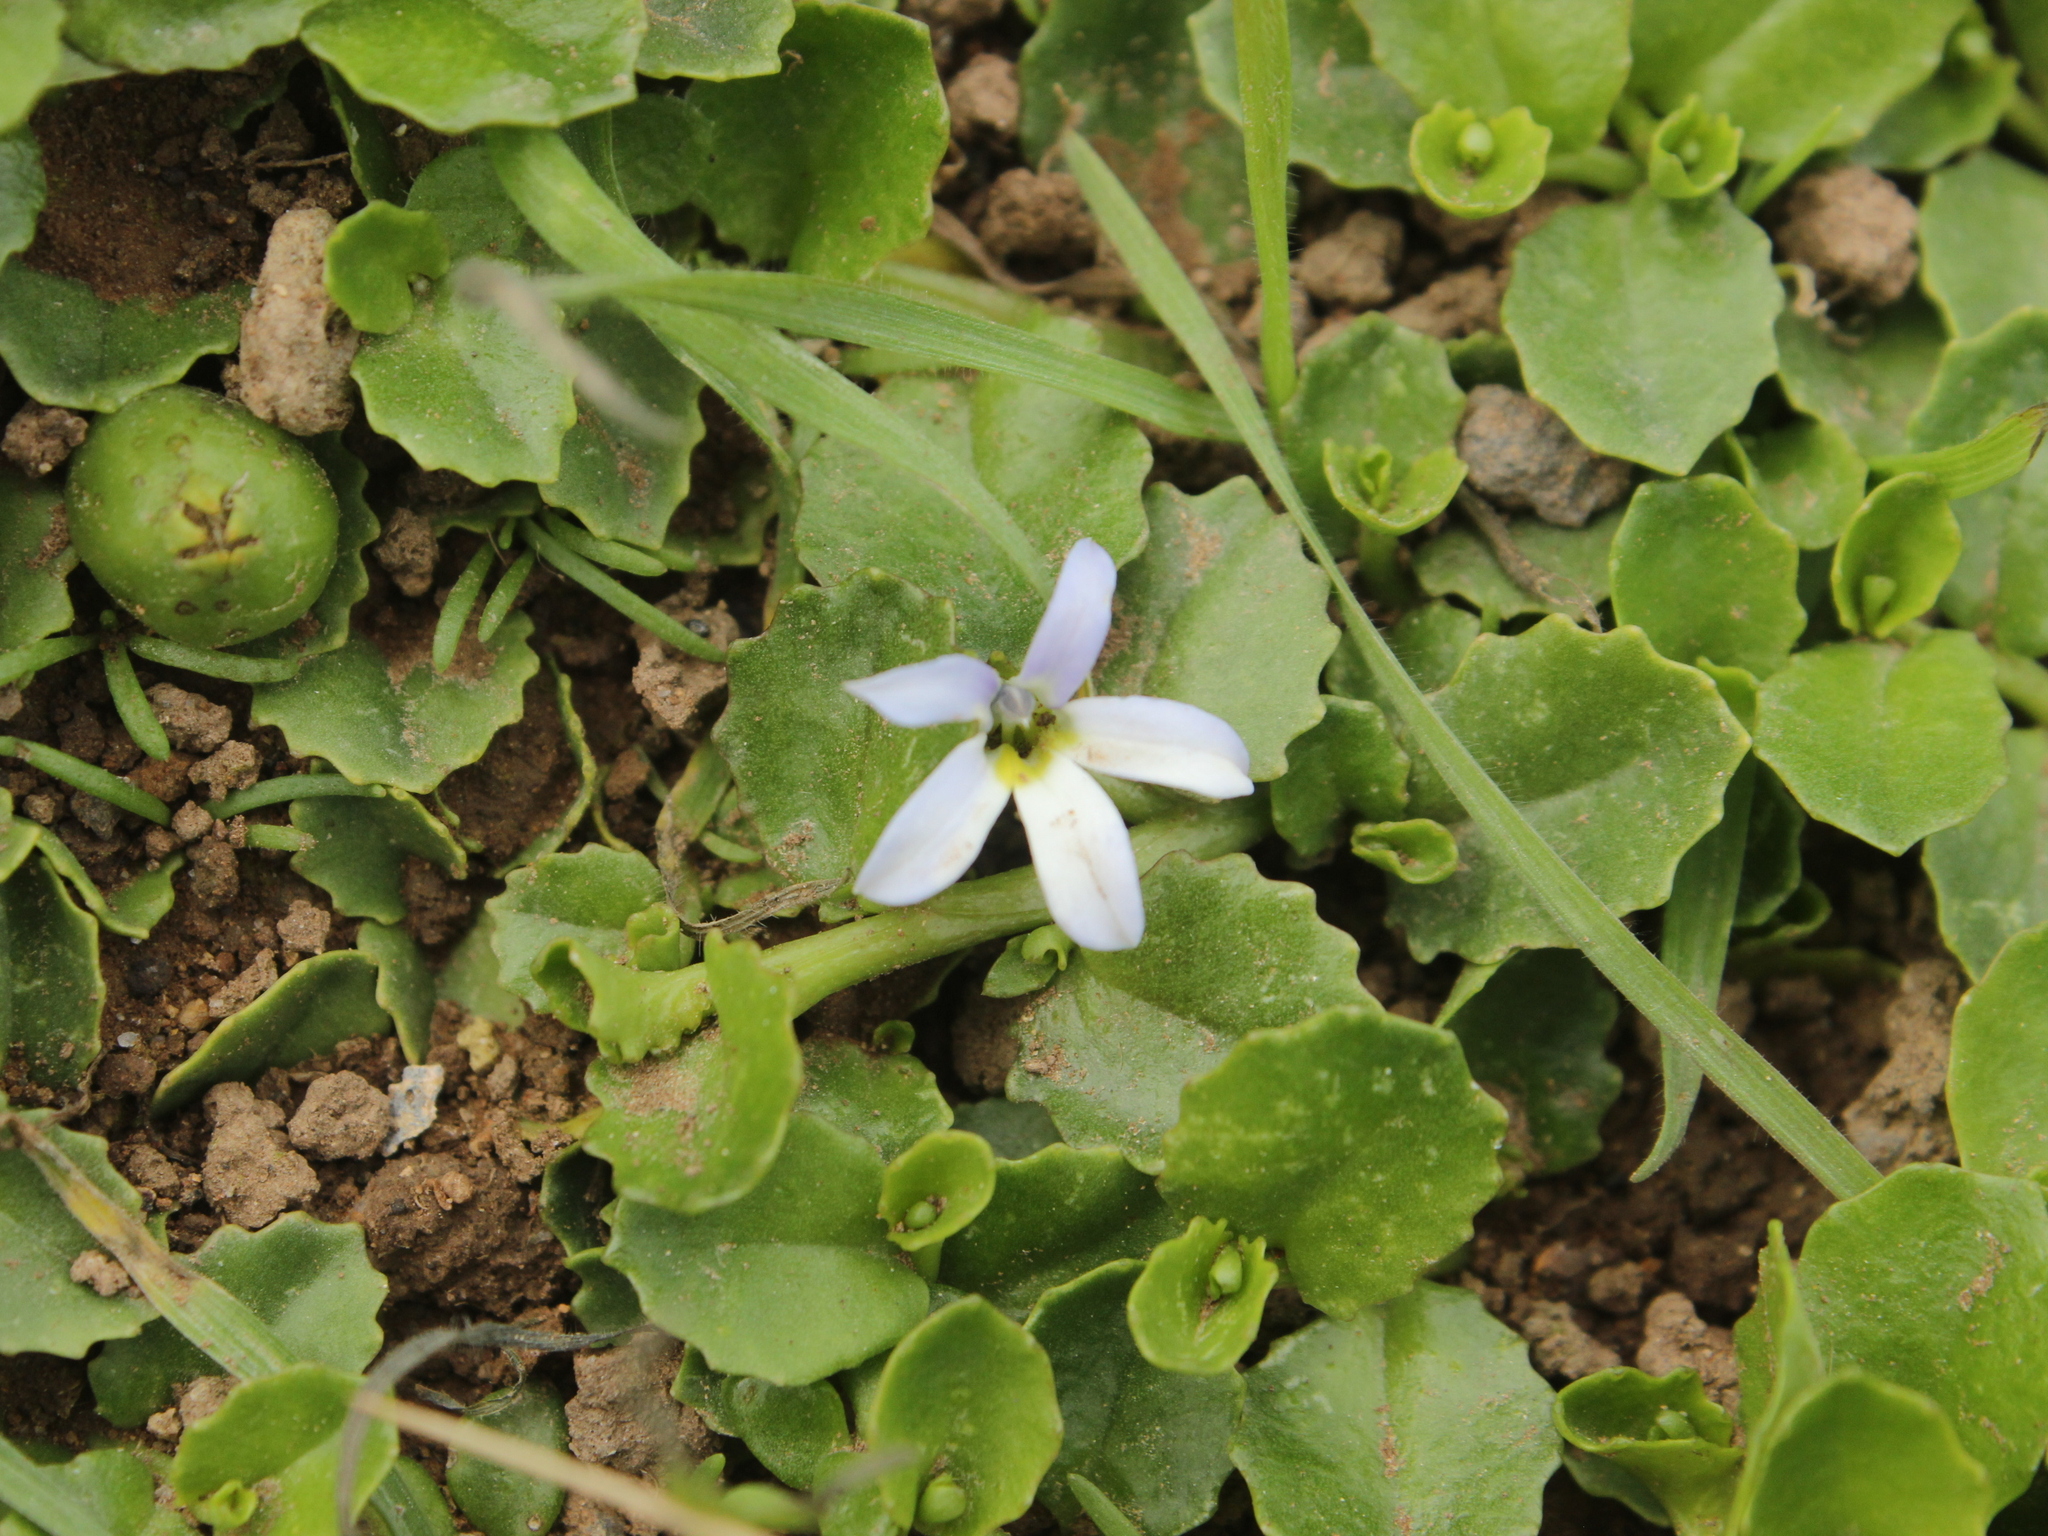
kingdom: Plantae
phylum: Tracheophyta
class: Magnoliopsida
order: Asterales
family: Campanulaceae
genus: Lobelia
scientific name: Lobelia arenaria
